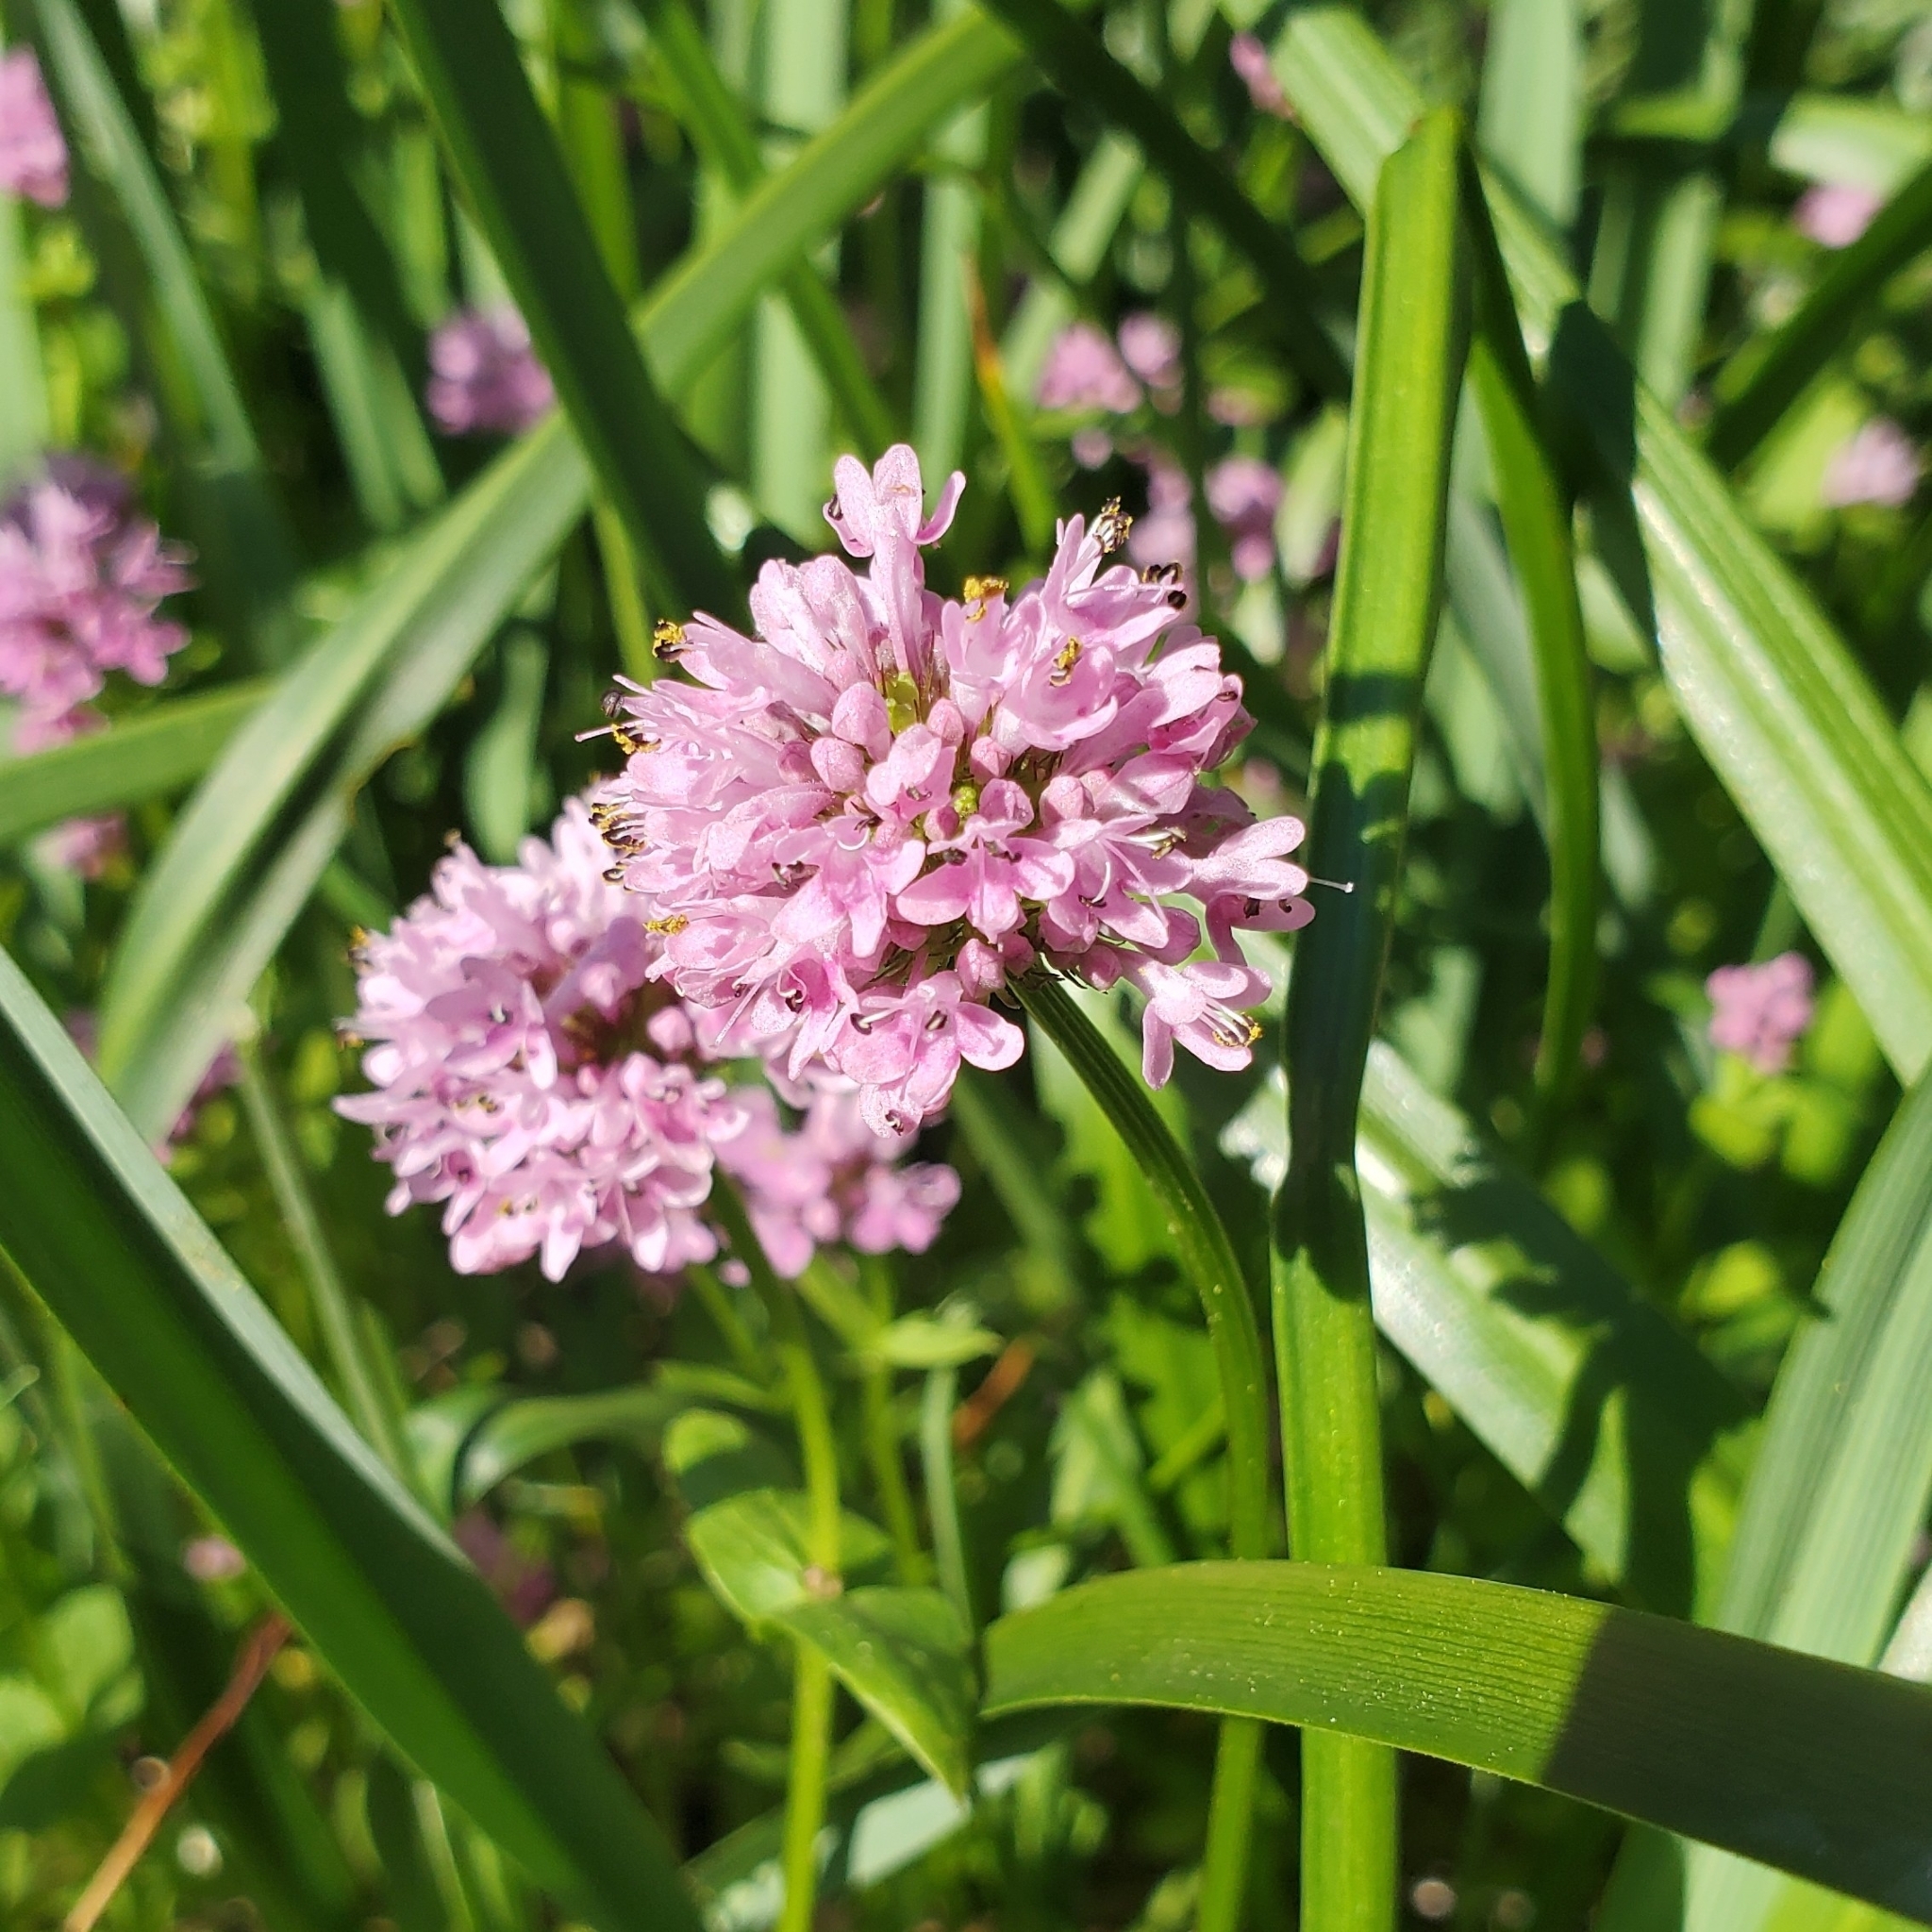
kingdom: Plantae
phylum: Tracheophyta
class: Magnoliopsida
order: Dipsacales
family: Caprifoliaceae
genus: Plectritis
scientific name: Plectritis congesta
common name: Pink plectritis
